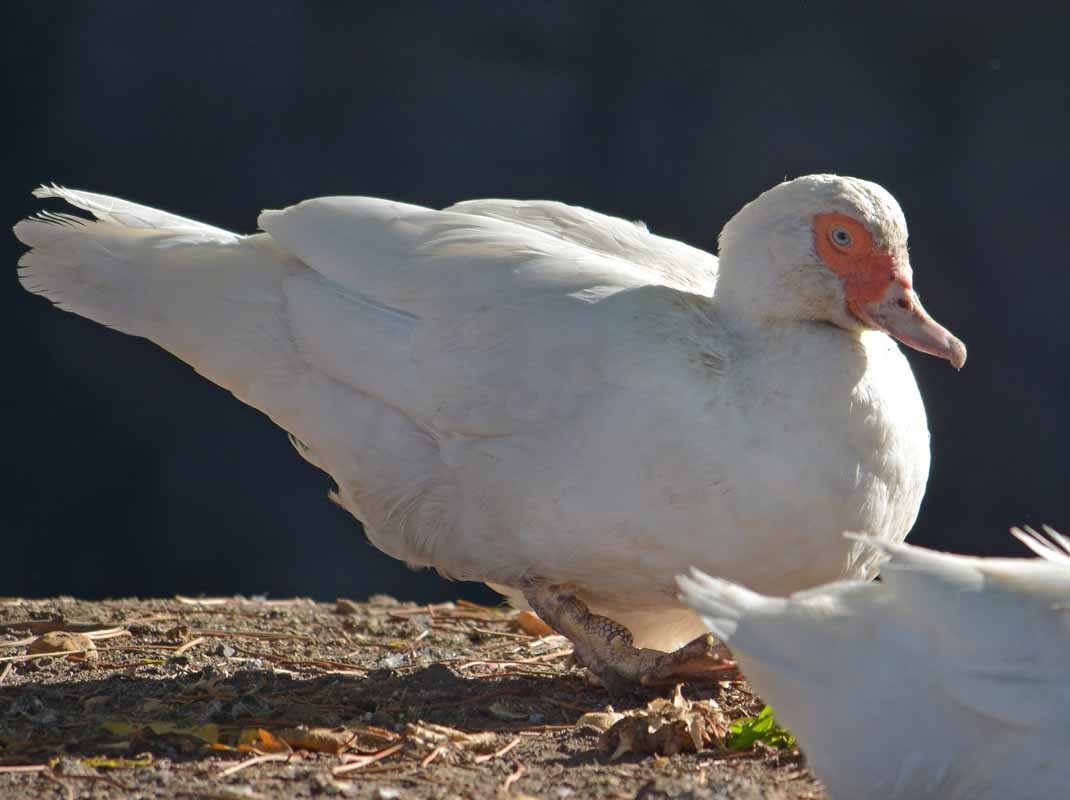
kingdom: Animalia
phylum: Chordata
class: Aves
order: Anseriformes
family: Anatidae
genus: Cairina
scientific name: Cairina moschata
